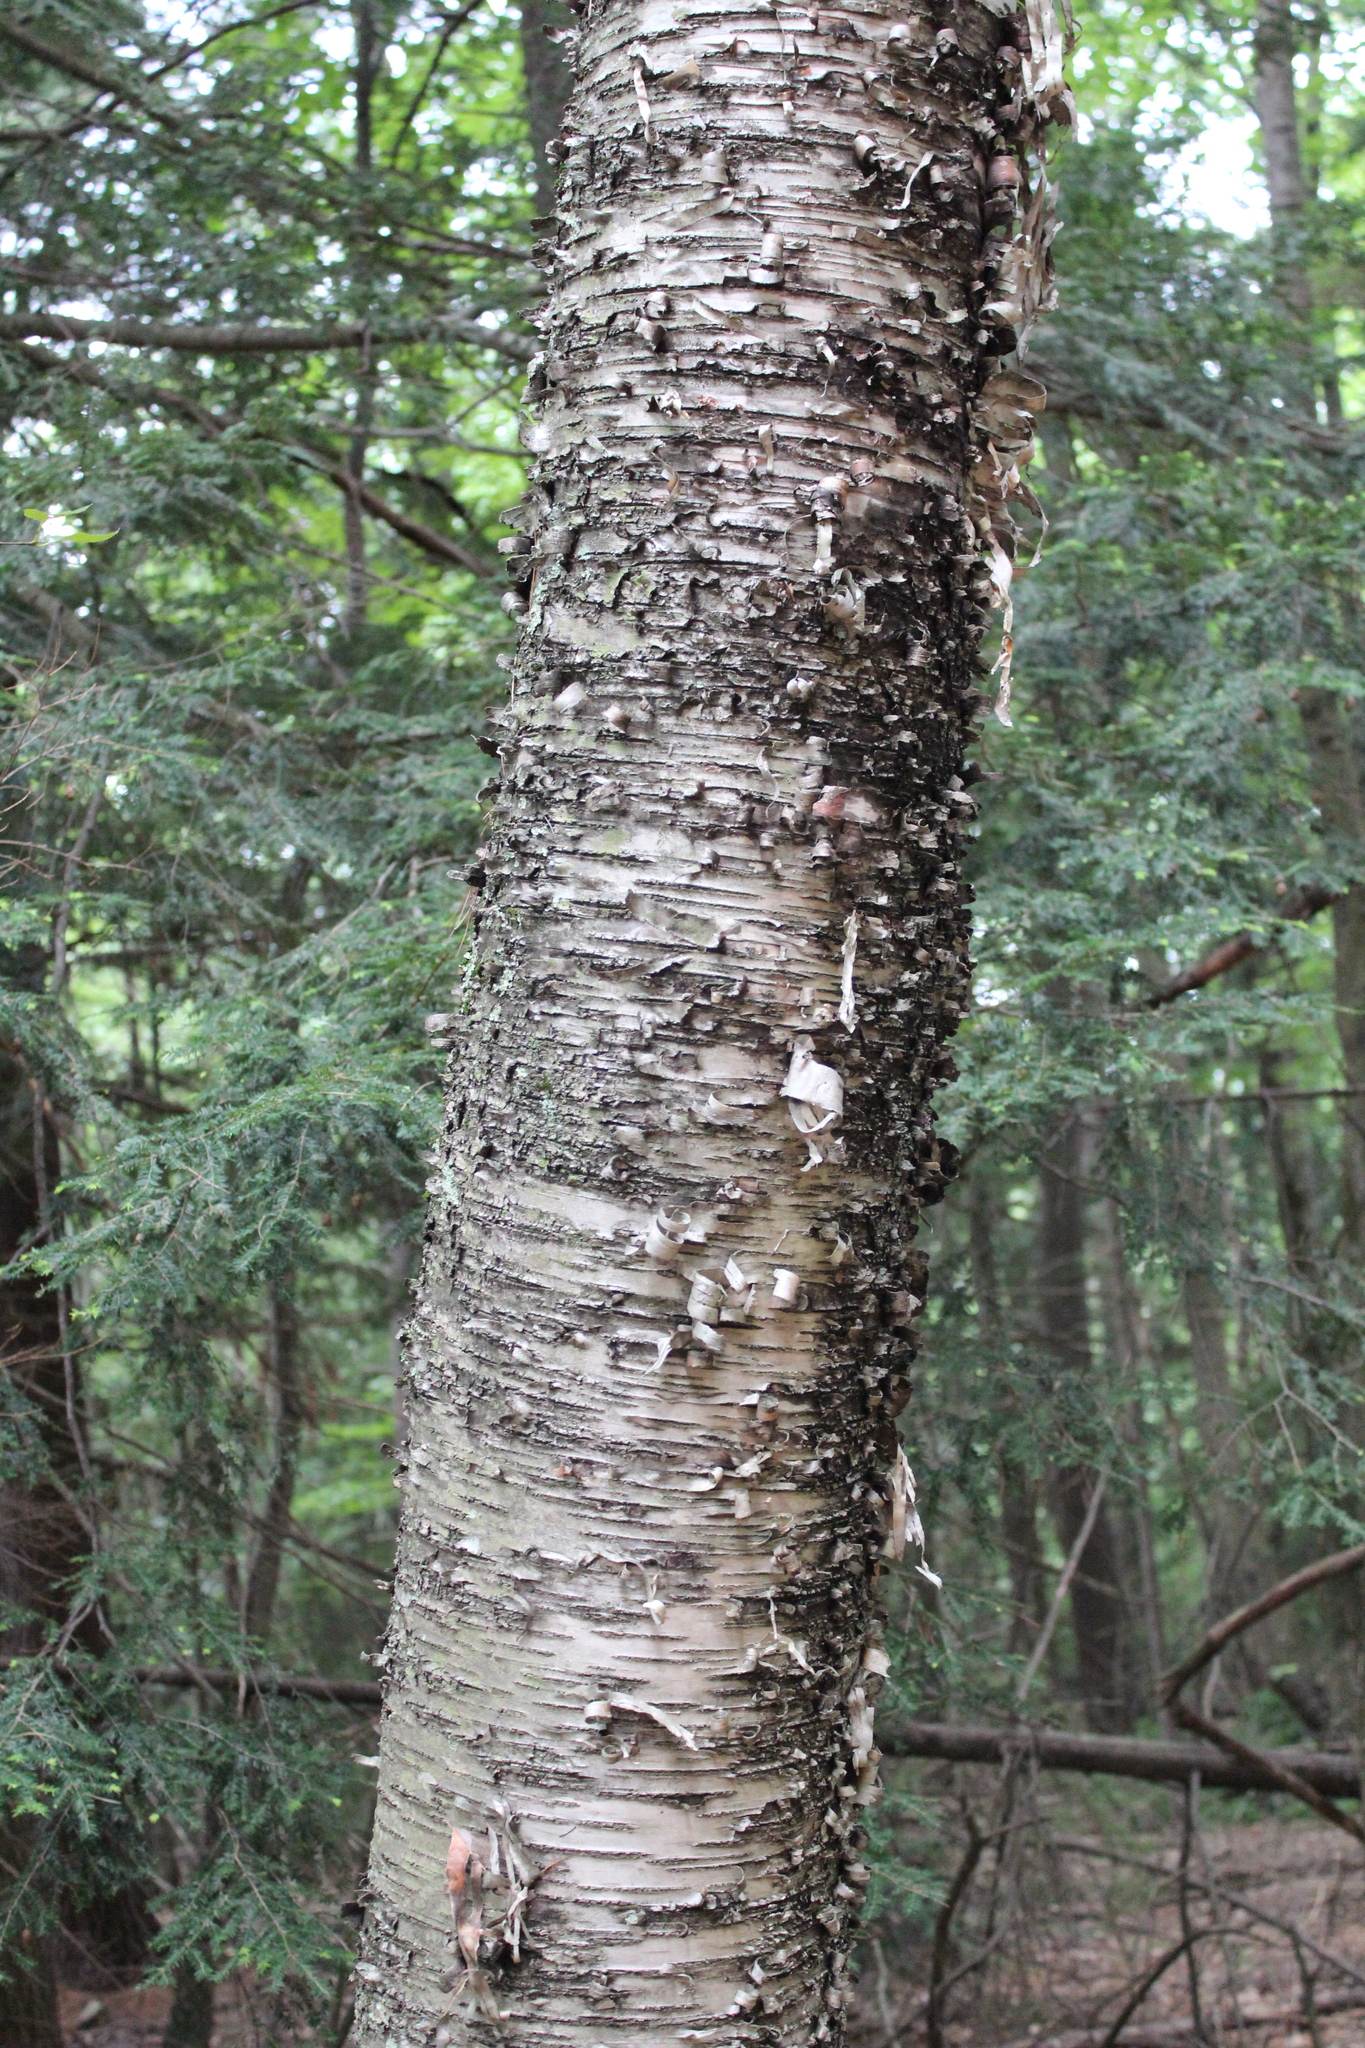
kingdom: Plantae
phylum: Tracheophyta
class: Magnoliopsida
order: Fagales
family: Betulaceae
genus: Betula
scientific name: Betula alleghaniensis
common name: Yellow birch
